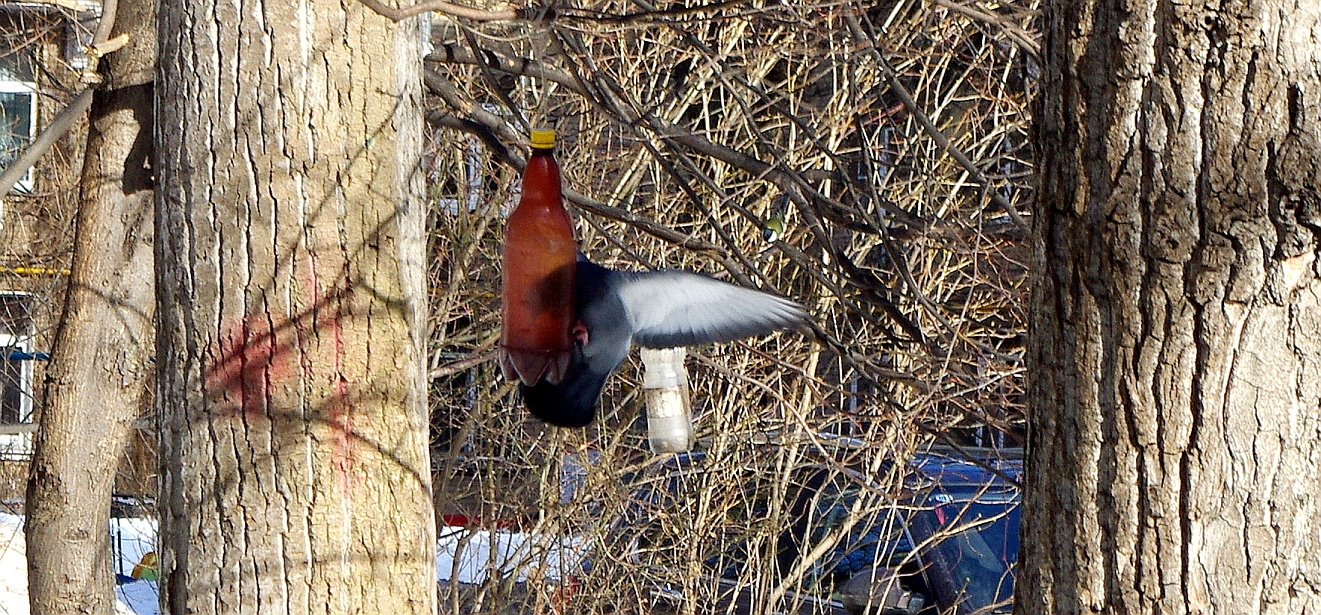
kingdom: Animalia
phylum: Chordata
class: Aves
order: Columbiformes
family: Columbidae
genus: Columba
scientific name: Columba livia
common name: Rock pigeon
